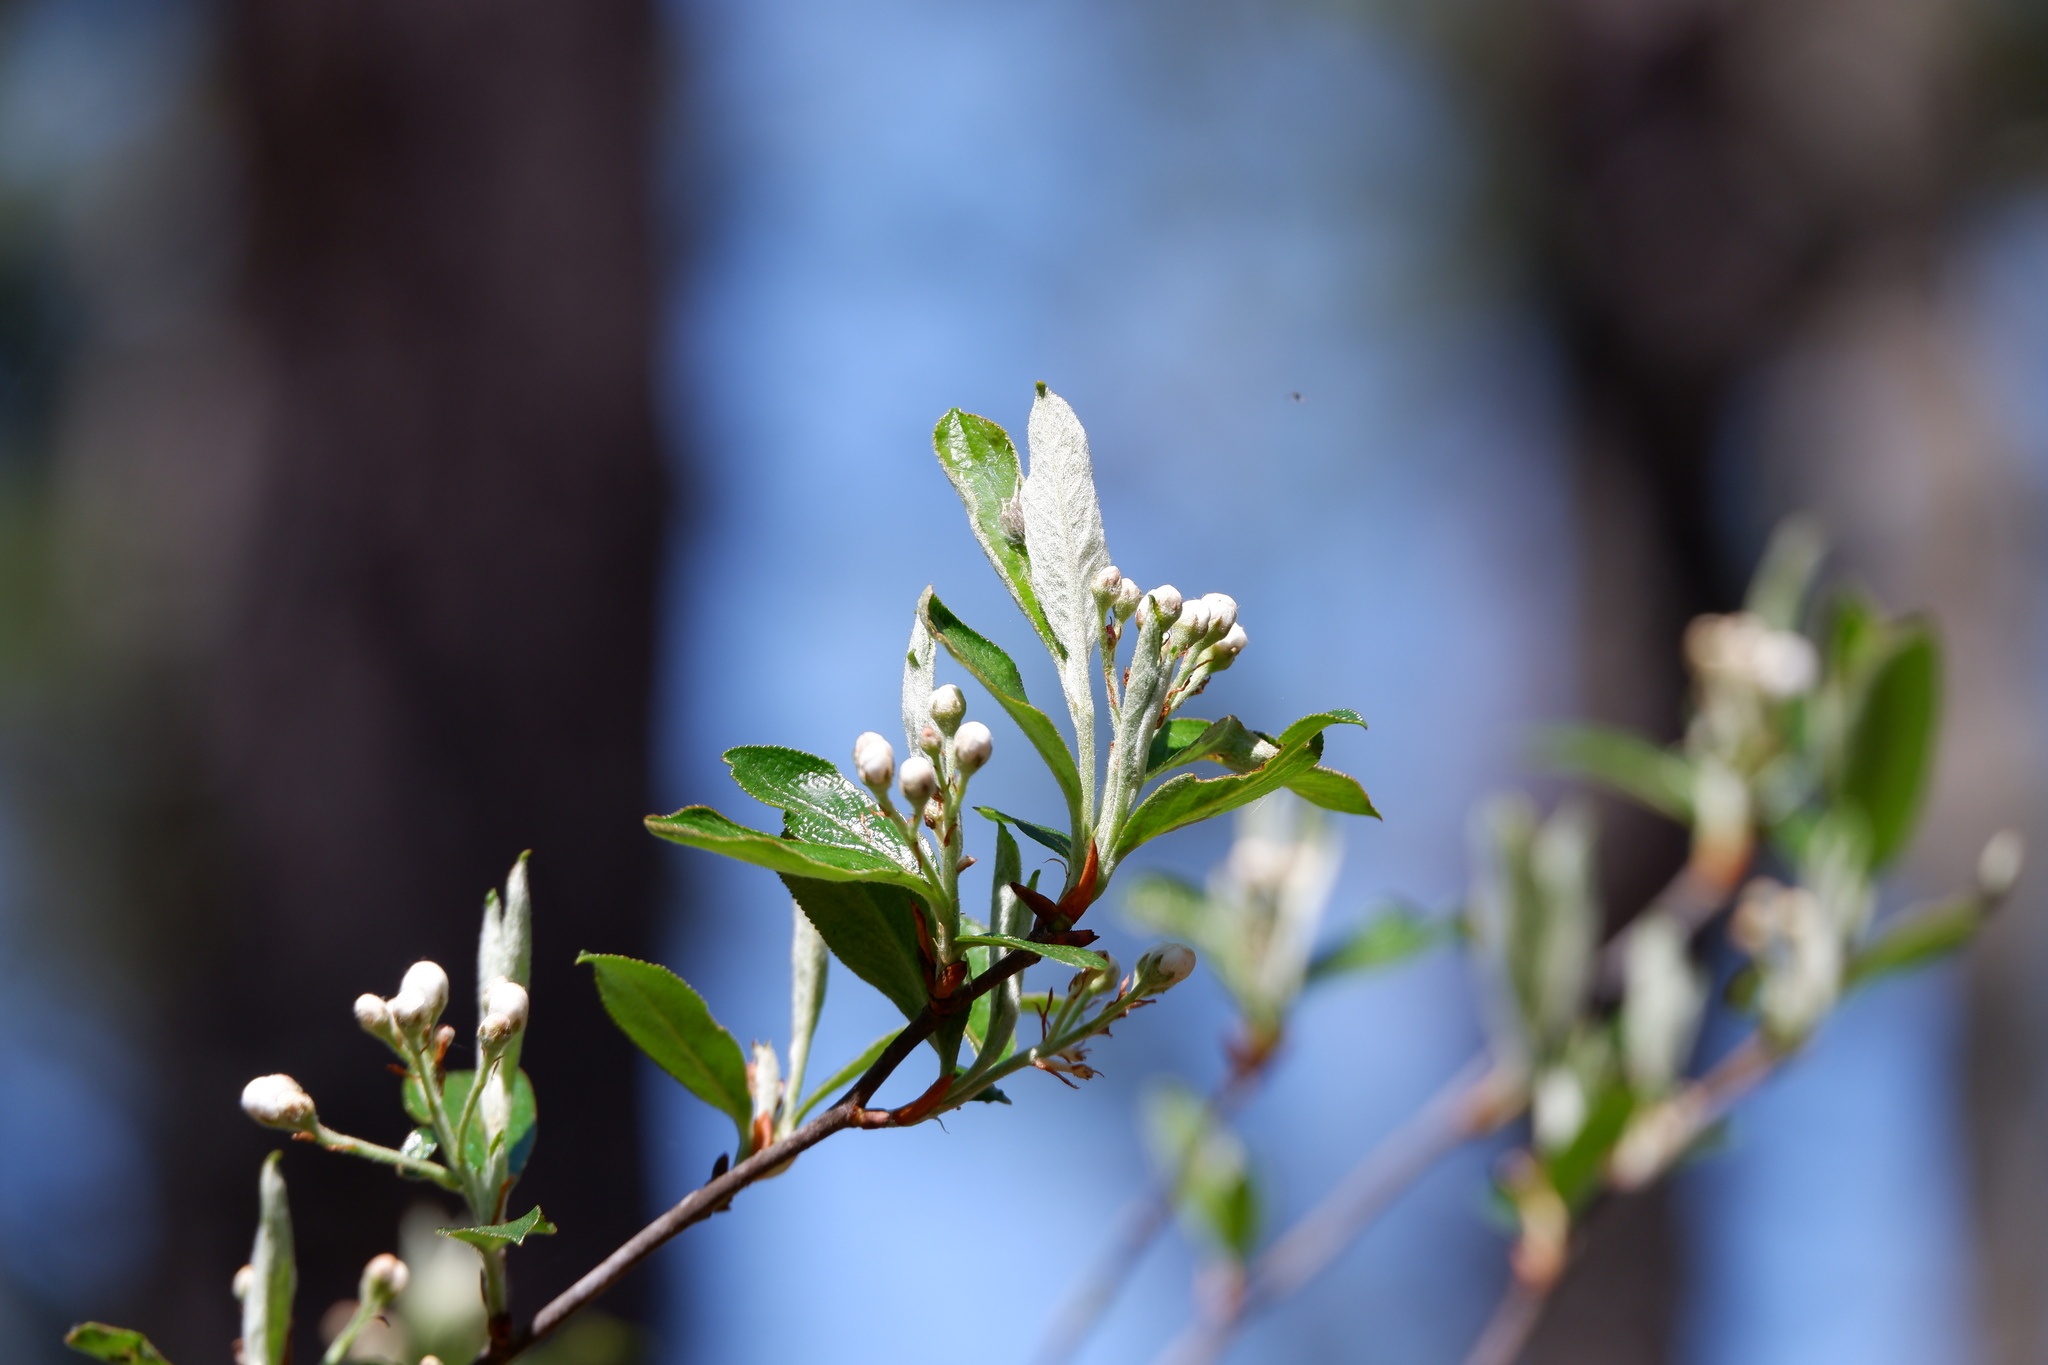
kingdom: Plantae
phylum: Tracheophyta
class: Magnoliopsida
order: Rosales
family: Rosaceae
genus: Aronia
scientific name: Aronia arbutifolia
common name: Red chokeberry
